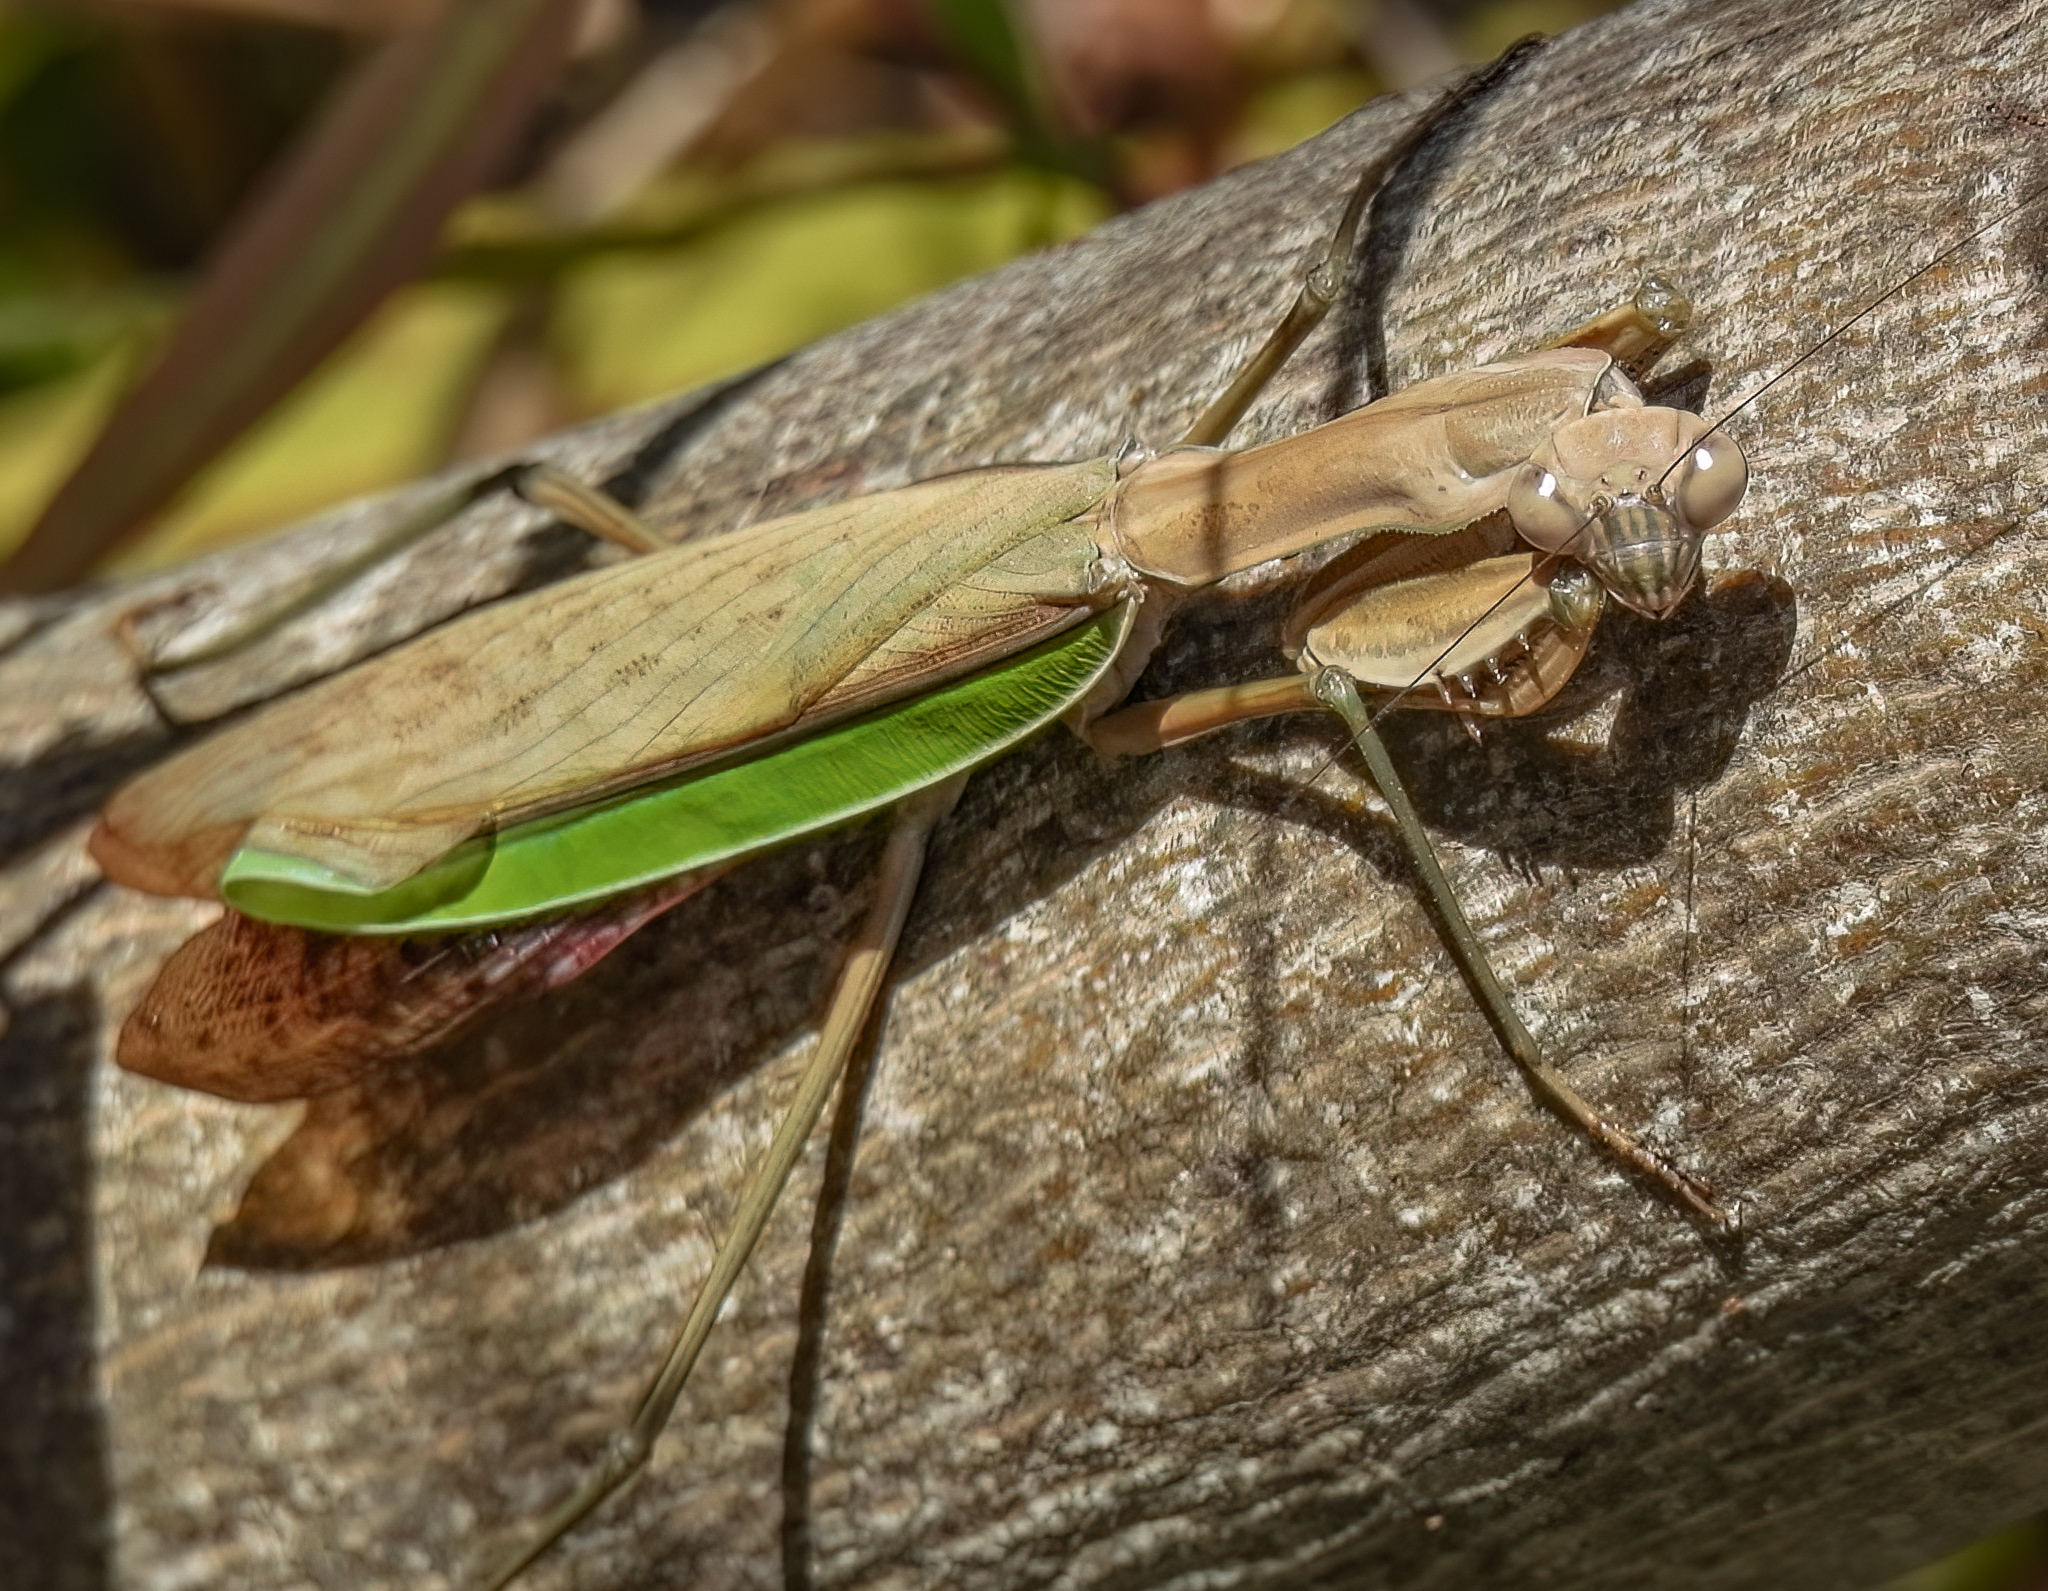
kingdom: Animalia
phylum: Arthropoda
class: Insecta
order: Mantodea
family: Mantidae
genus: Tenodera
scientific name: Tenodera sinensis
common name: Chinese mantis
